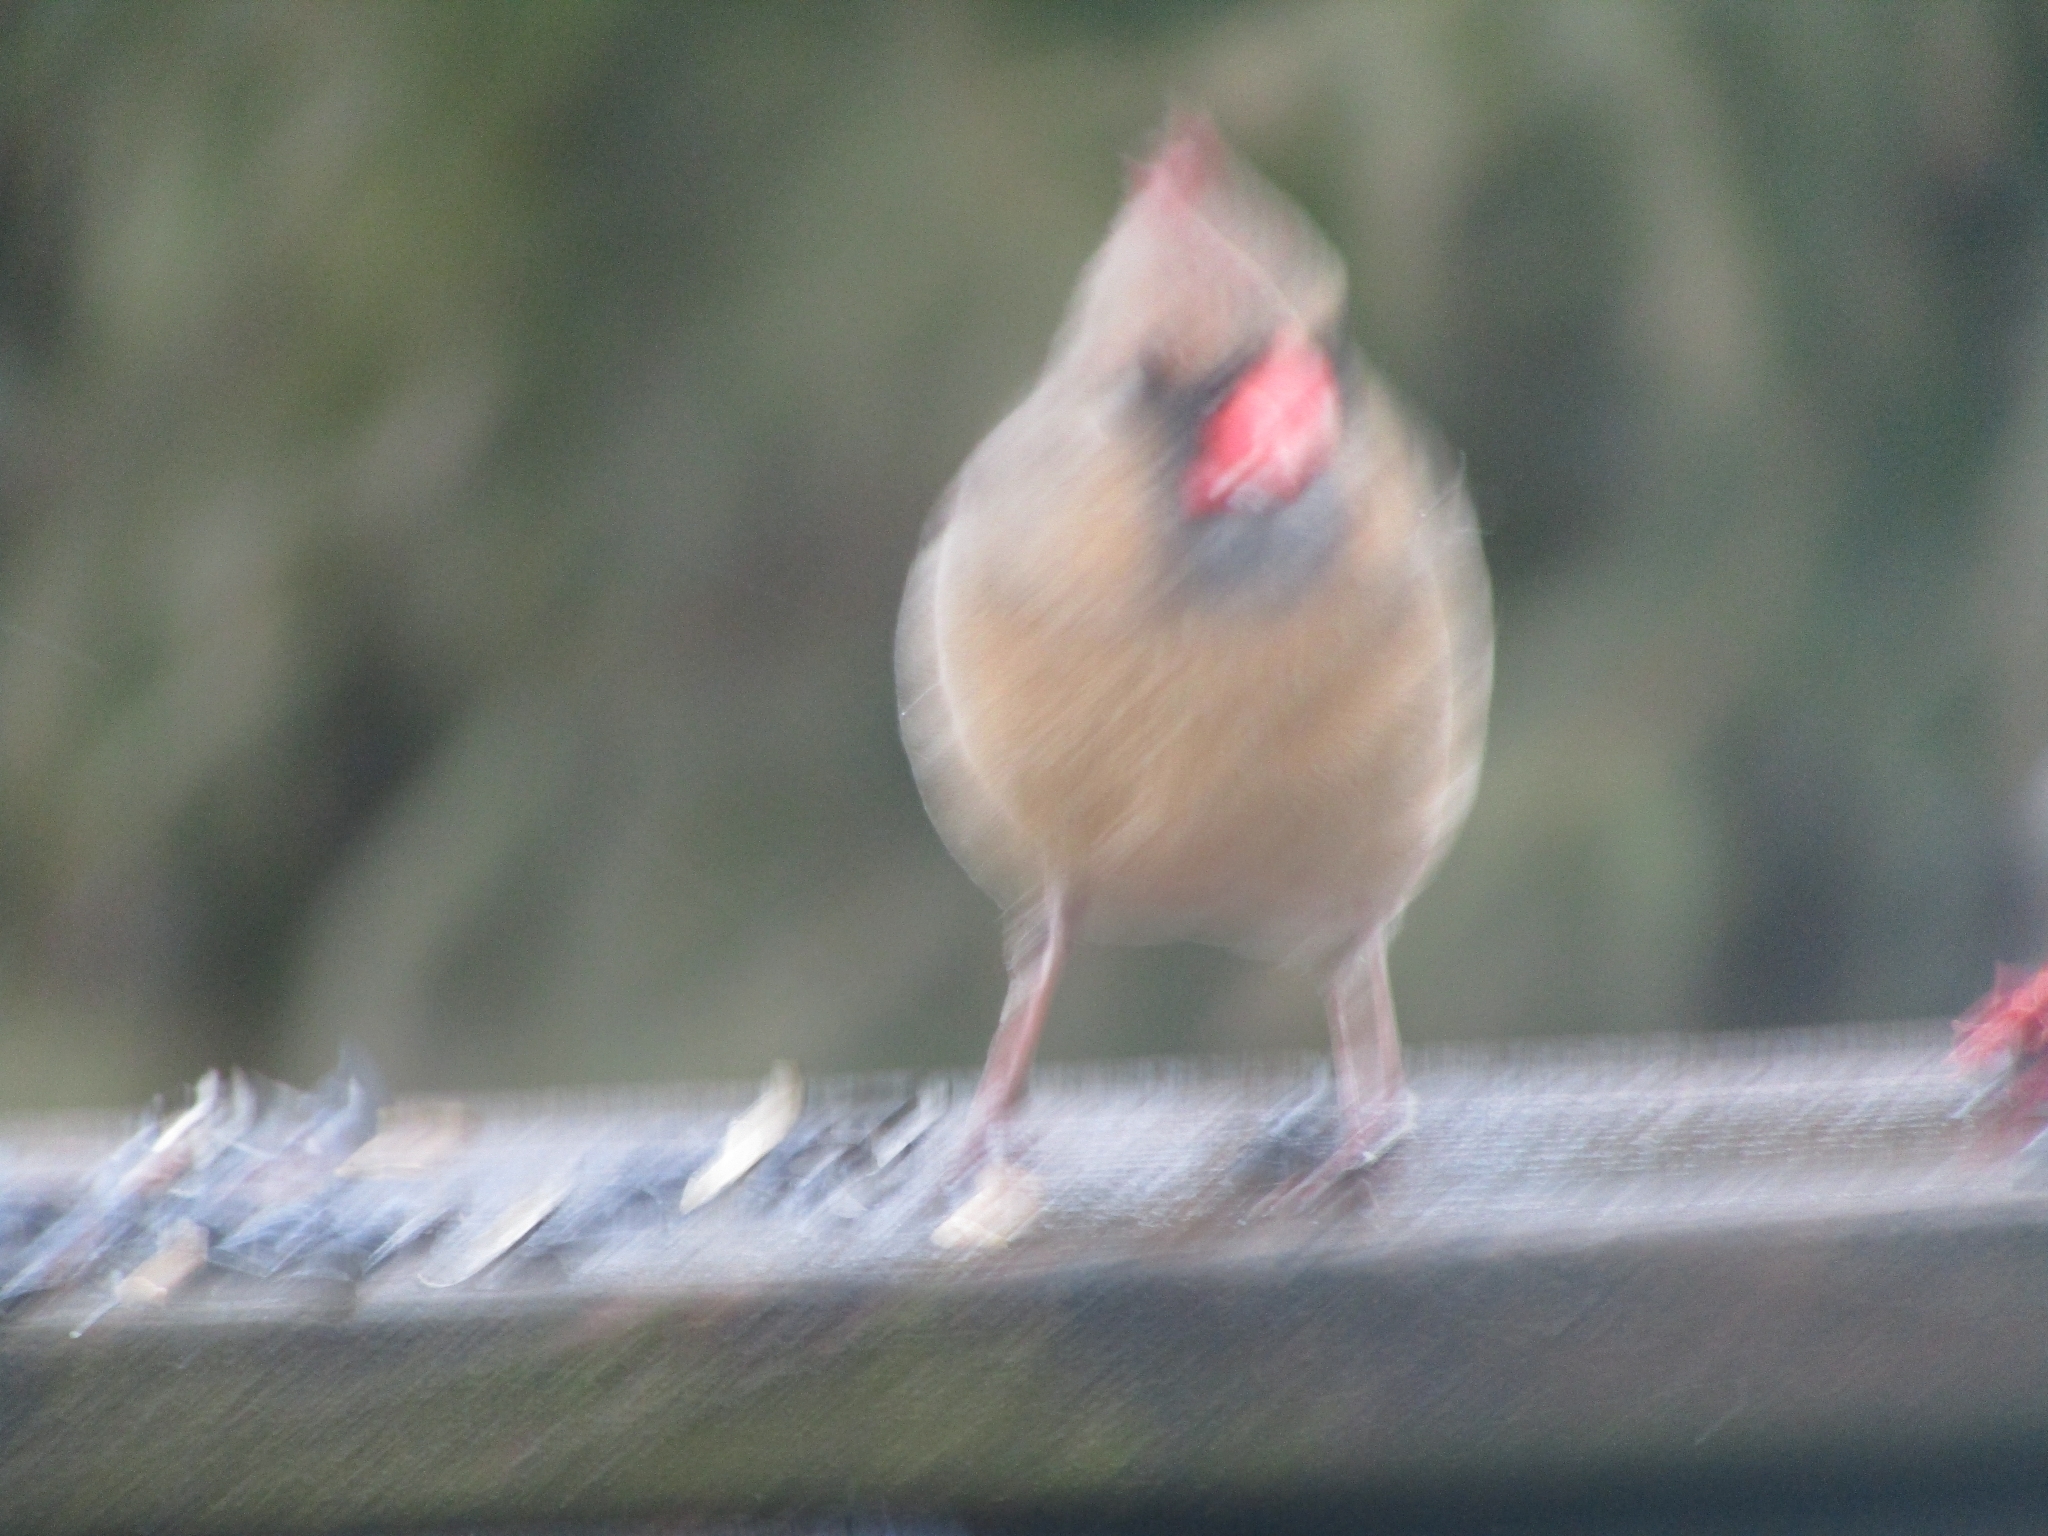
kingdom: Animalia
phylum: Chordata
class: Aves
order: Passeriformes
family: Cardinalidae
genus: Cardinalis
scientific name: Cardinalis cardinalis
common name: Northern cardinal
